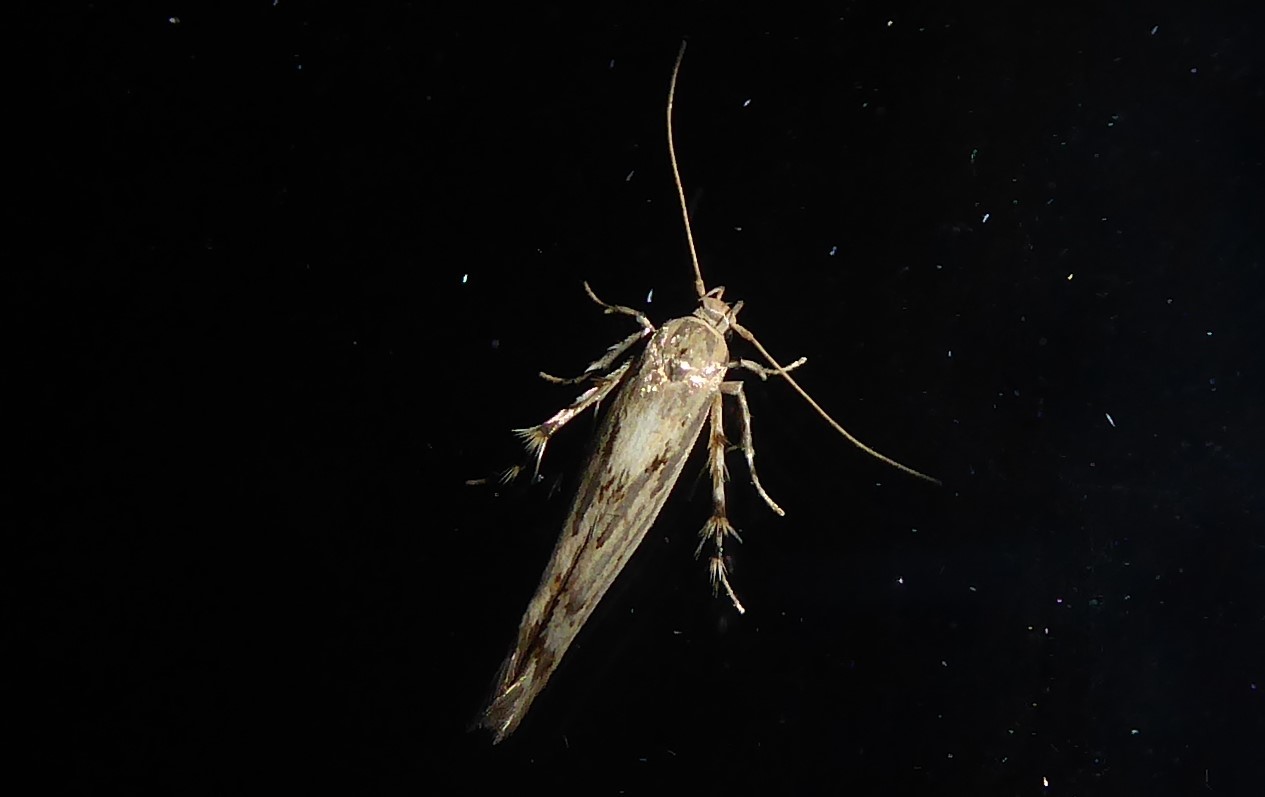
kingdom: Animalia
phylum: Arthropoda
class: Insecta
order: Lepidoptera
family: Stathmopodidae
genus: Stathmopoda
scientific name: Stathmopoda plumbiflua
